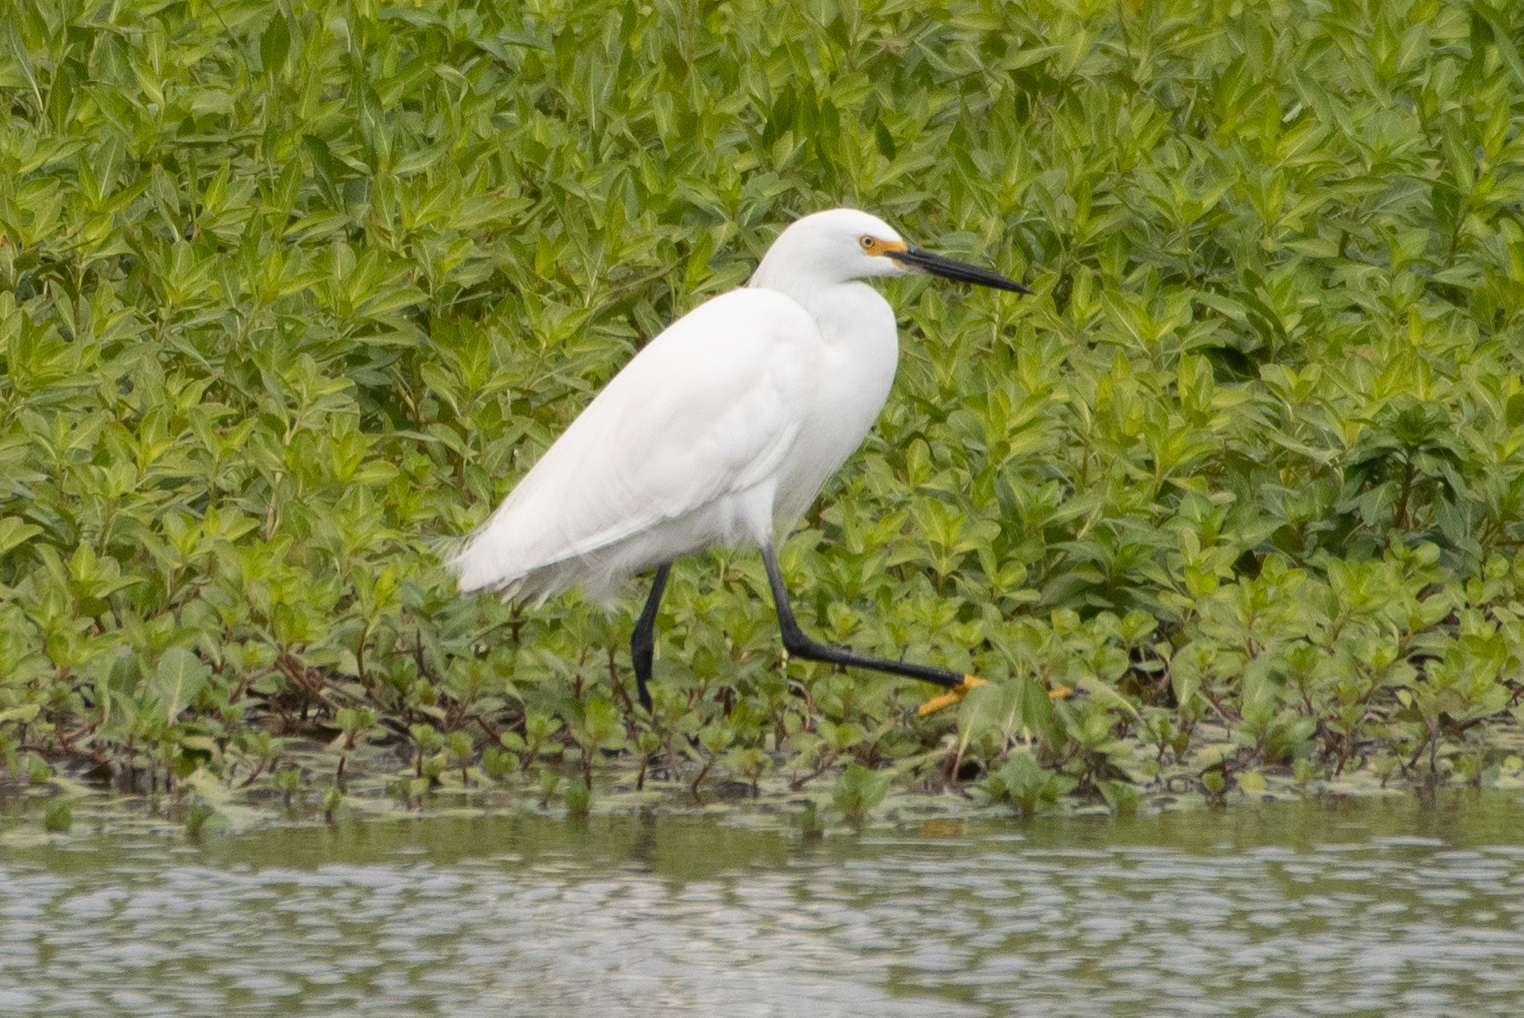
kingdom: Animalia
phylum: Chordata
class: Aves
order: Pelecaniformes
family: Ardeidae
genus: Egretta
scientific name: Egretta thula
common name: Snowy egret
